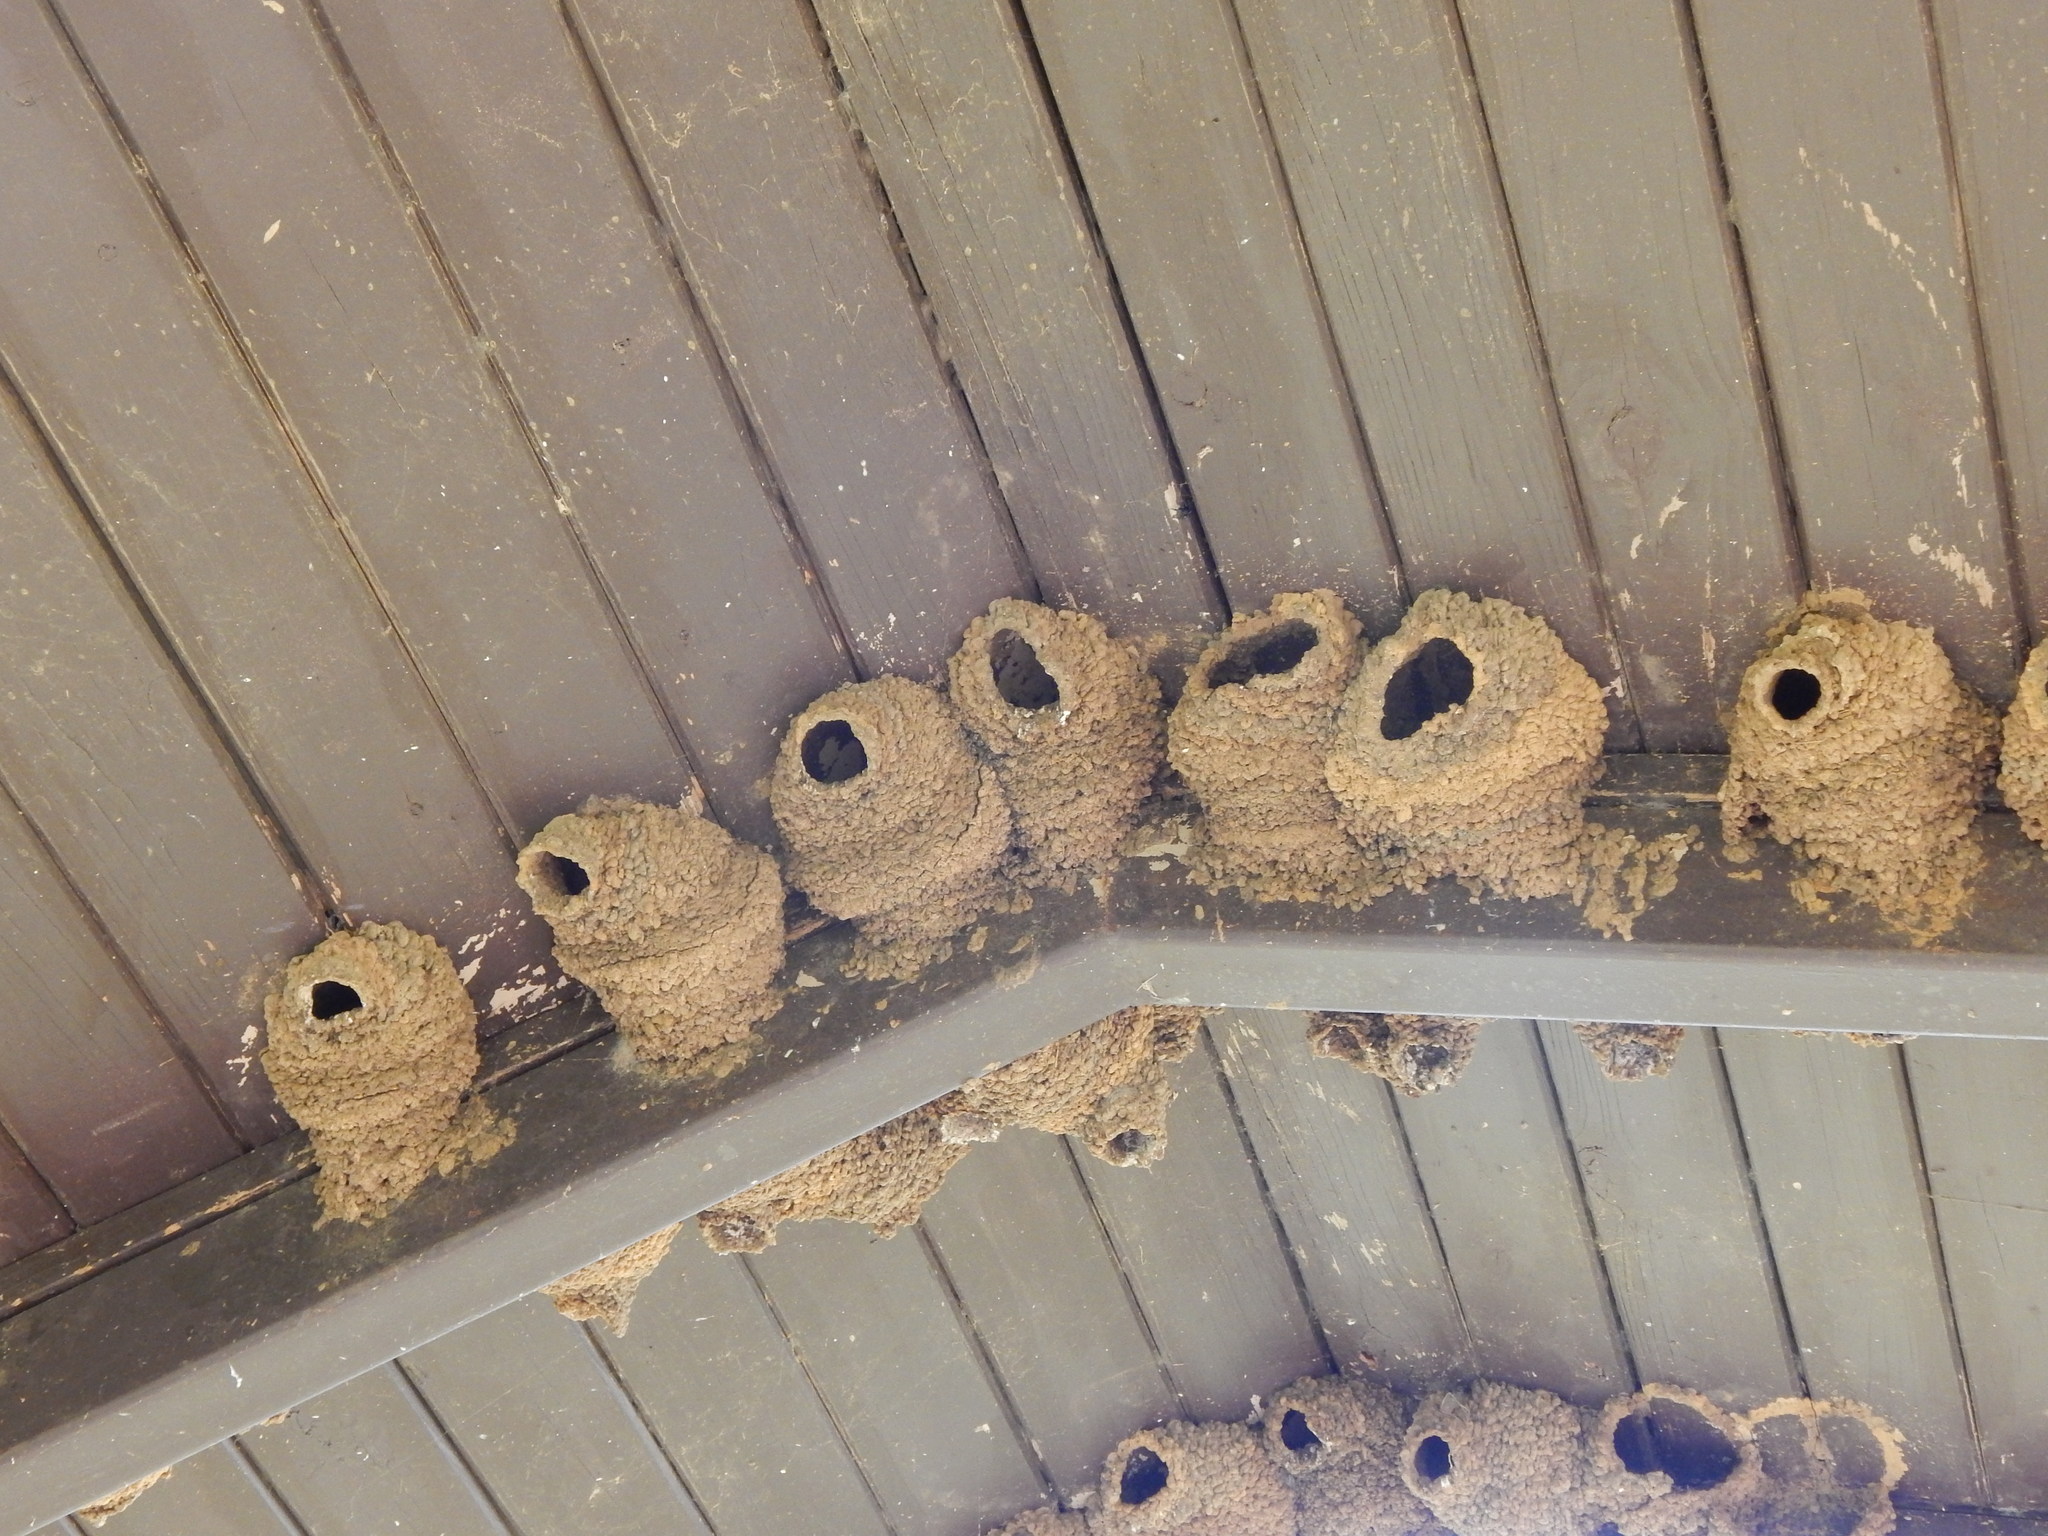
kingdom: Animalia
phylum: Chordata
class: Aves
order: Passeriformes
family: Hirundinidae
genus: Petrochelidon
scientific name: Petrochelidon pyrrhonota
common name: American cliff swallow
